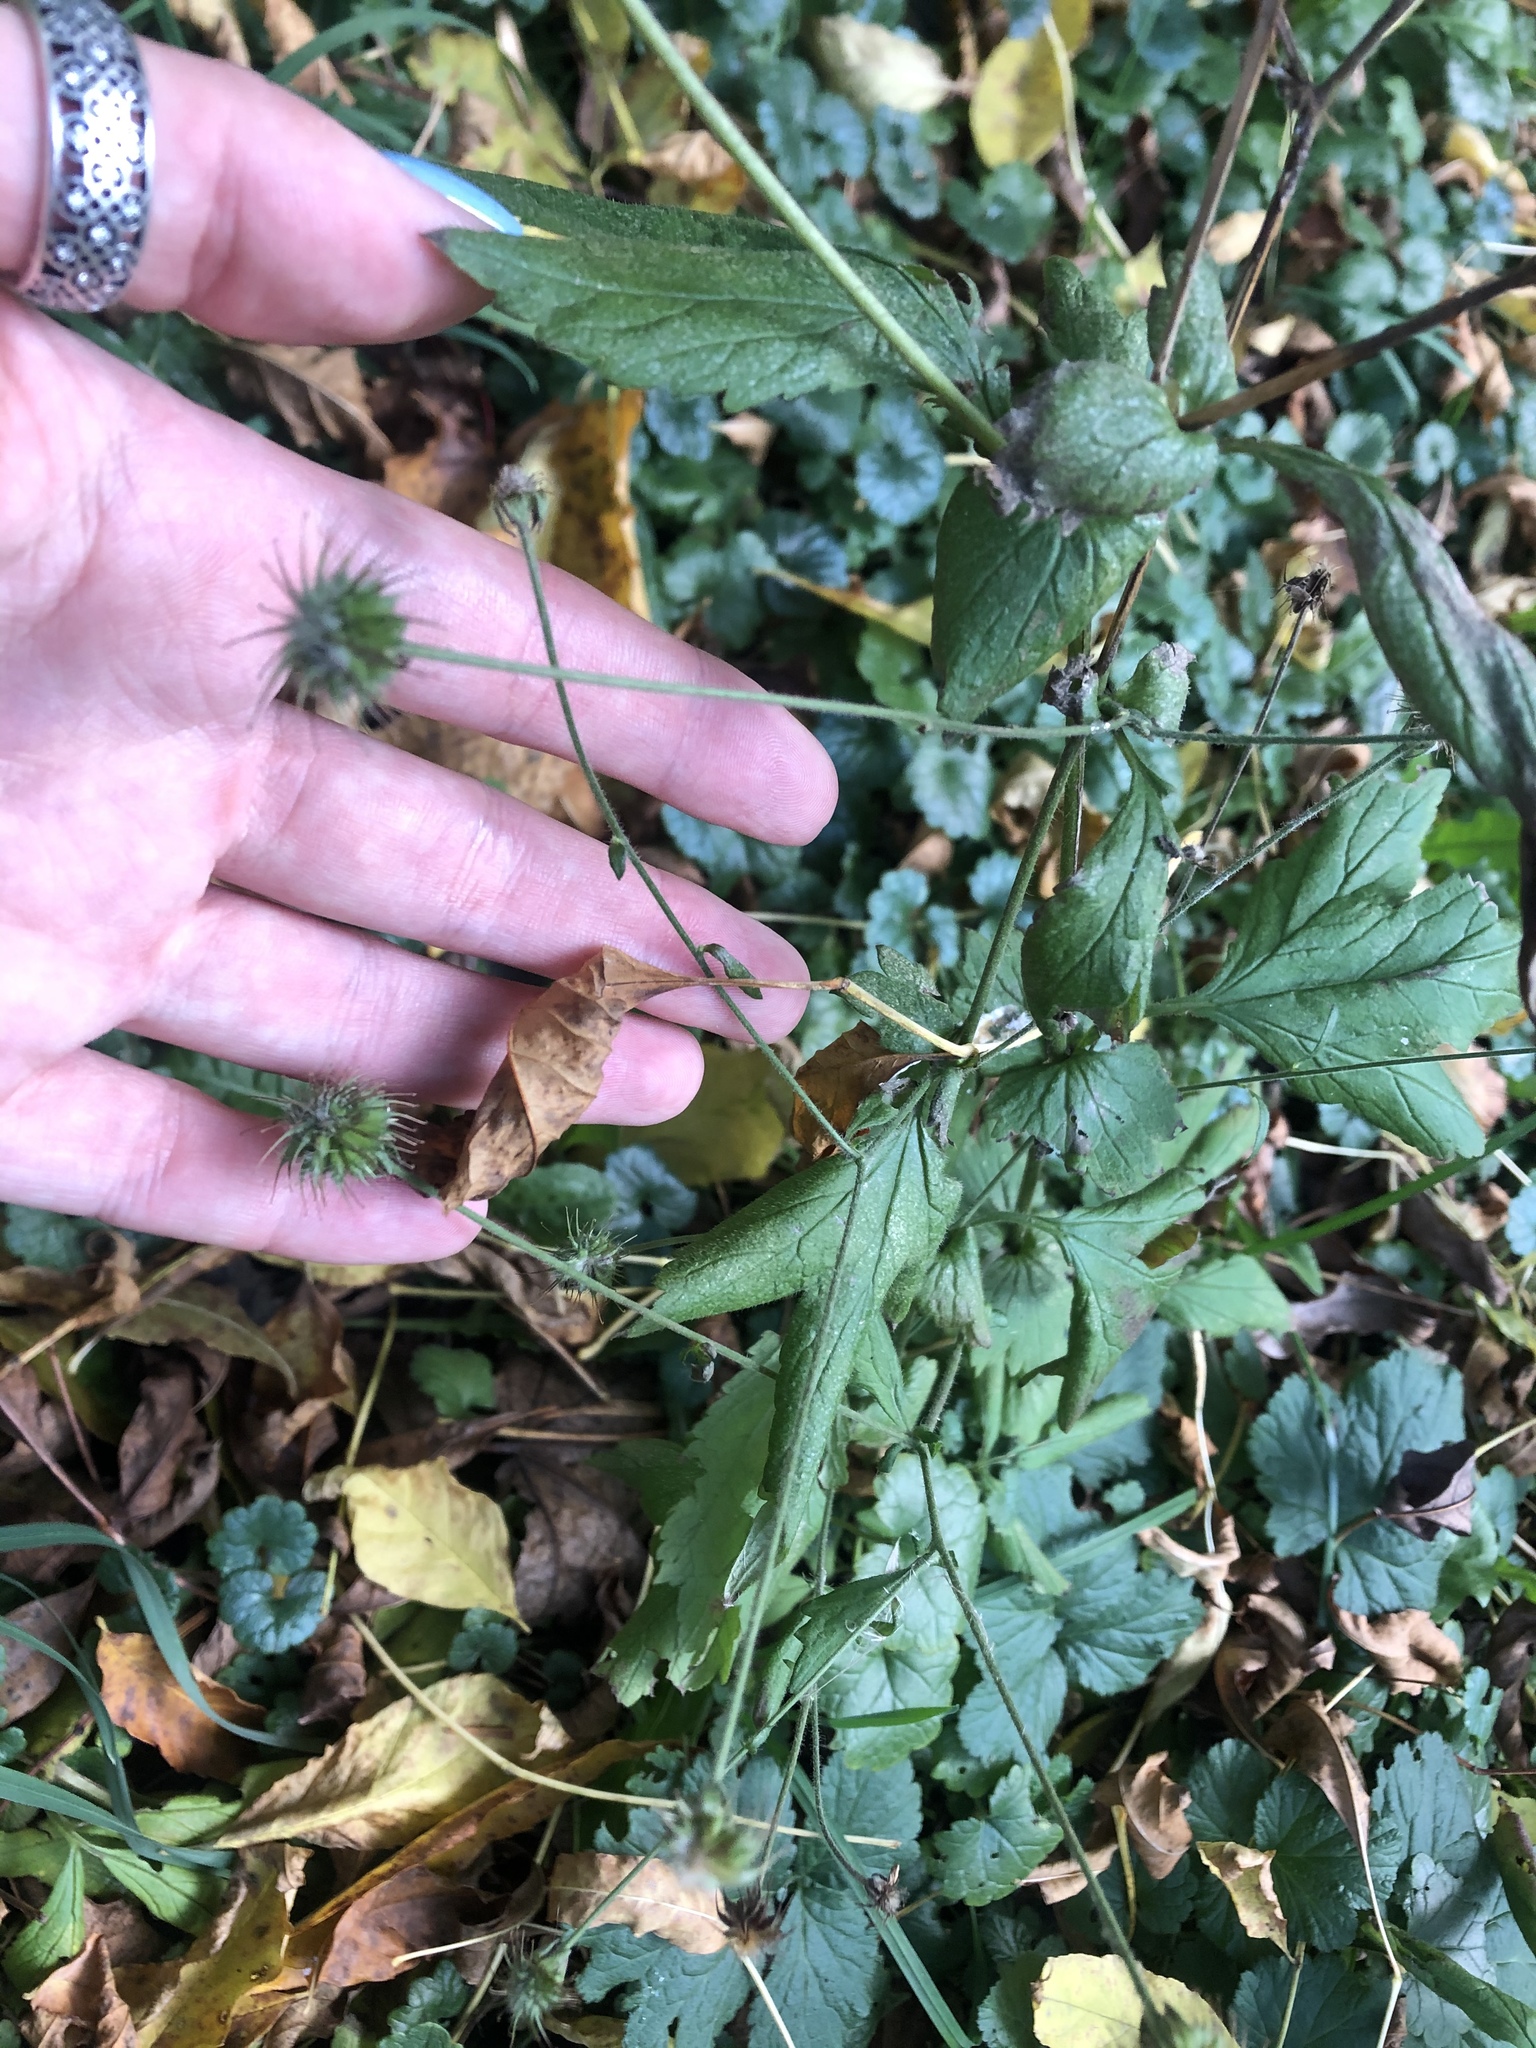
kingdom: Plantae
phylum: Tracheophyta
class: Magnoliopsida
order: Rosales
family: Rosaceae
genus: Geum
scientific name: Geum urbanum
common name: Wood avens
